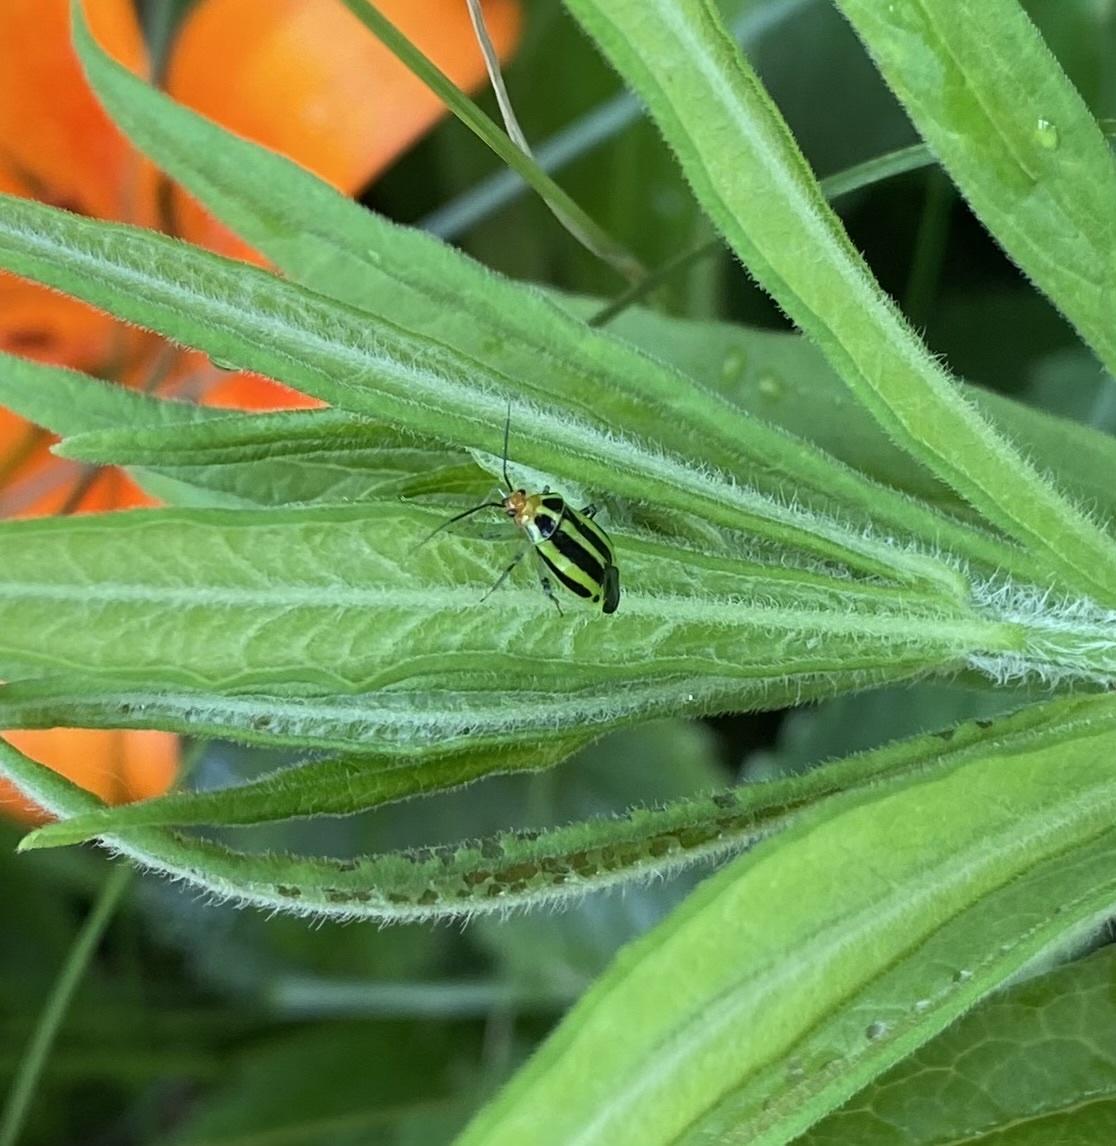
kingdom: Animalia
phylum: Arthropoda
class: Insecta
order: Hemiptera
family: Miridae
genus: Poecilocapsus
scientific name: Poecilocapsus lineatus
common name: Four-lined plant bug
